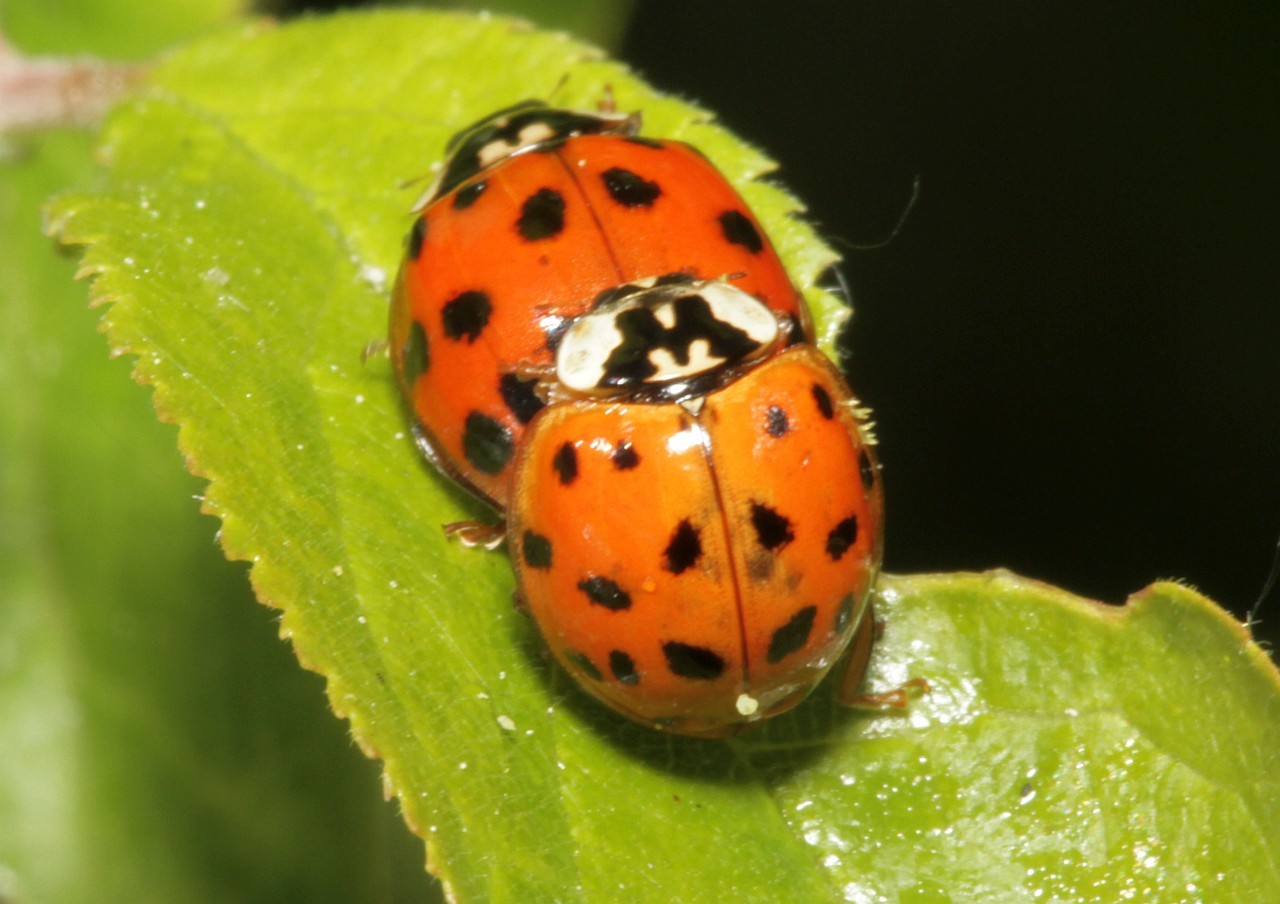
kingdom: Animalia
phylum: Arthropoda
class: Insecta
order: Coleoptera
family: Coccinellidae
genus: Harmonia
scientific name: Harmonia axyridis
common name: Harlequin ladybird
